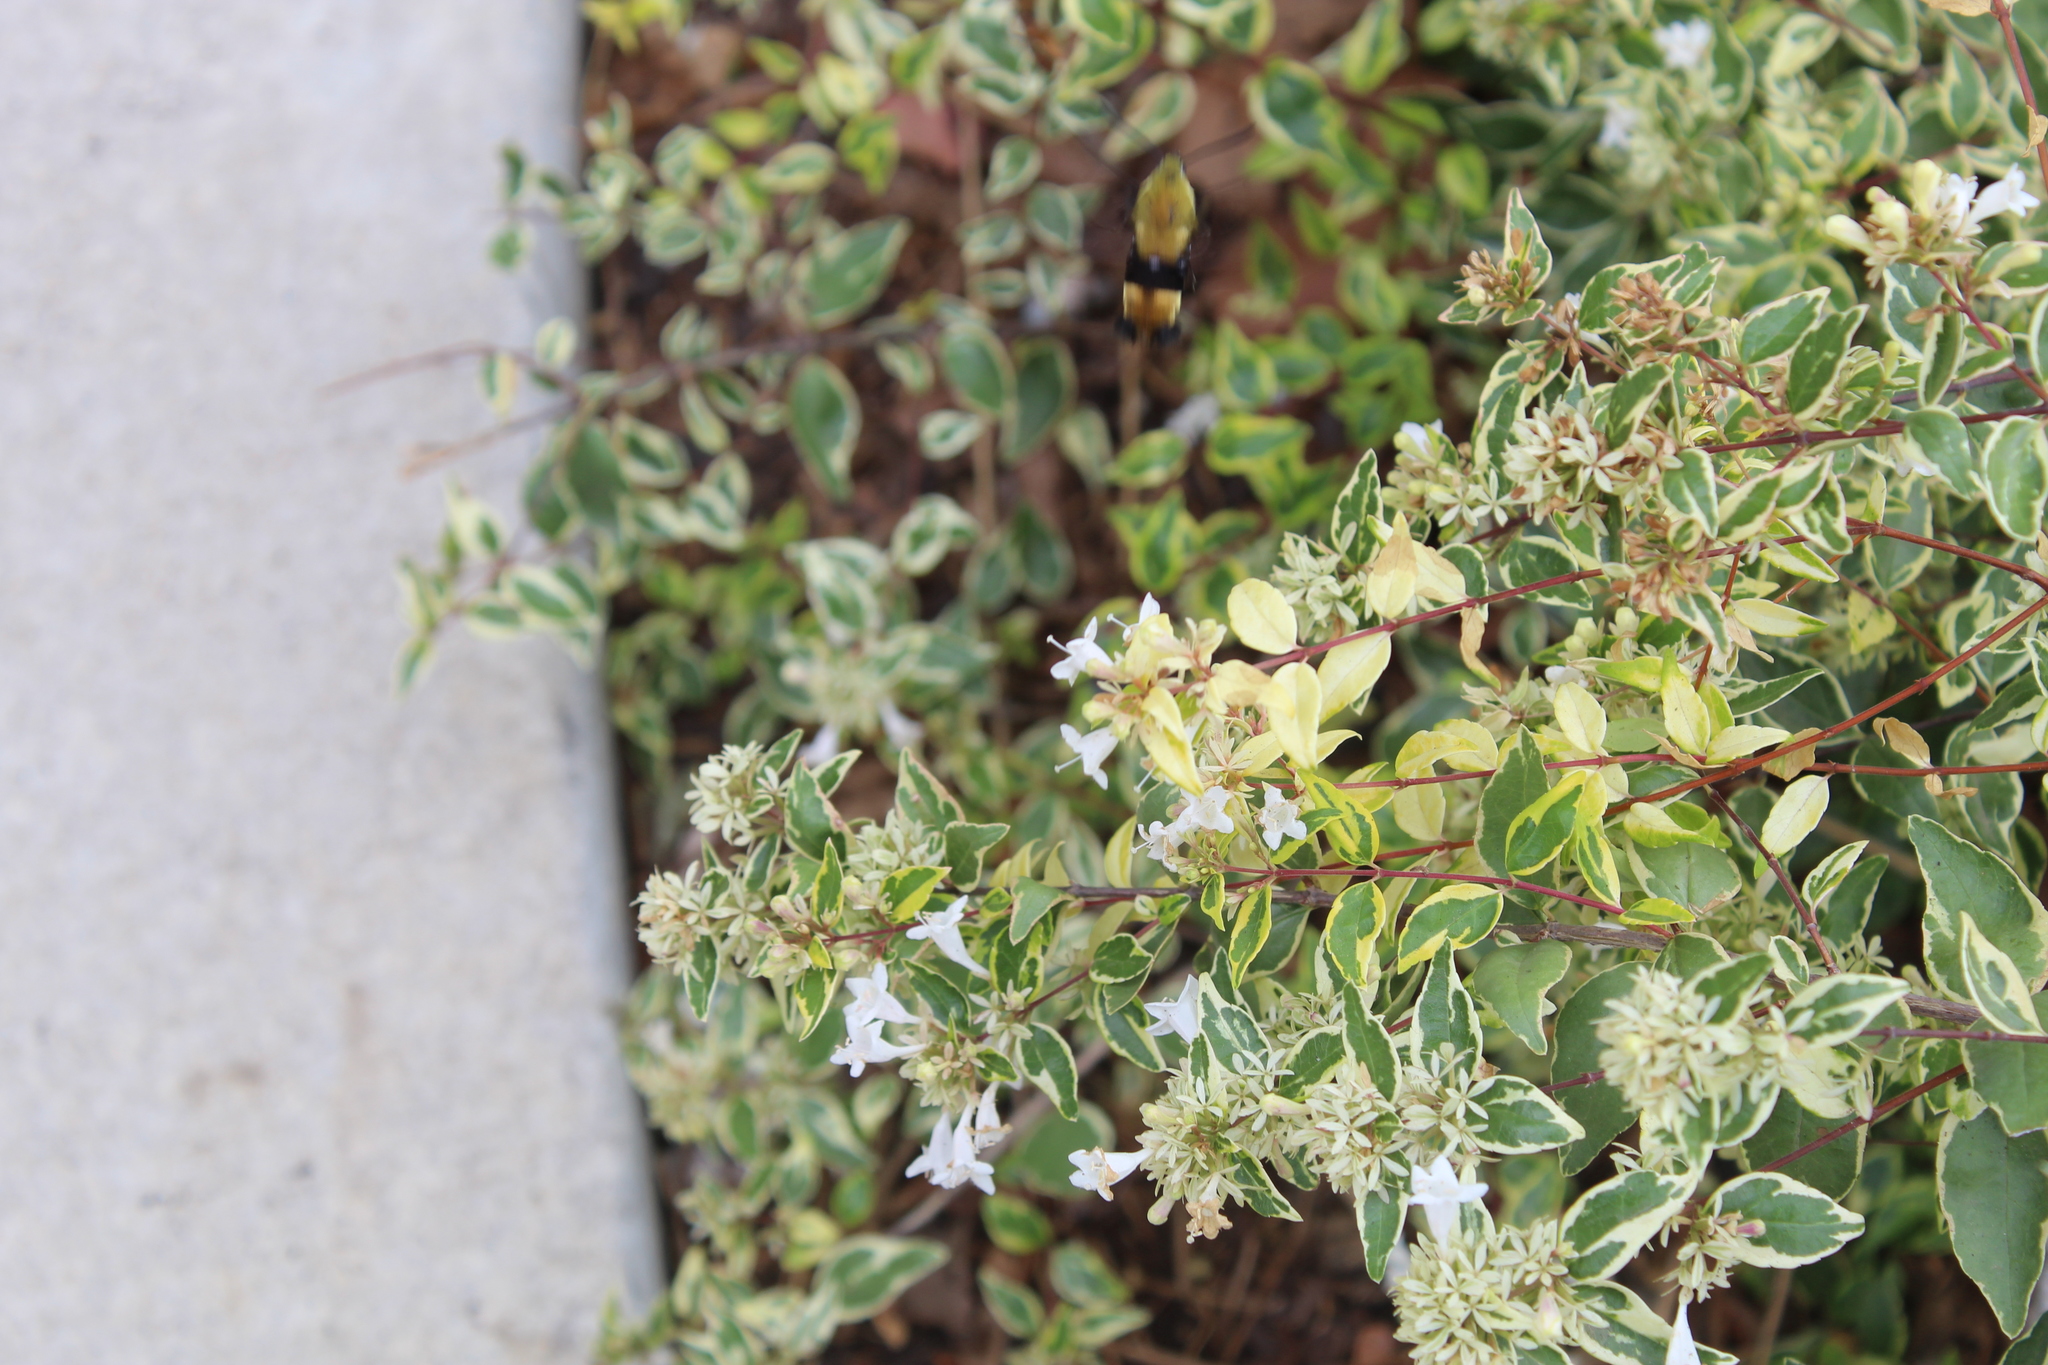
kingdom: Animalia
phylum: Arthropoda
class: Insecta
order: Lepidoptera
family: Sphingidae
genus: Hemaris
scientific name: Hemaris diffinis
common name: Bumblebee moth
